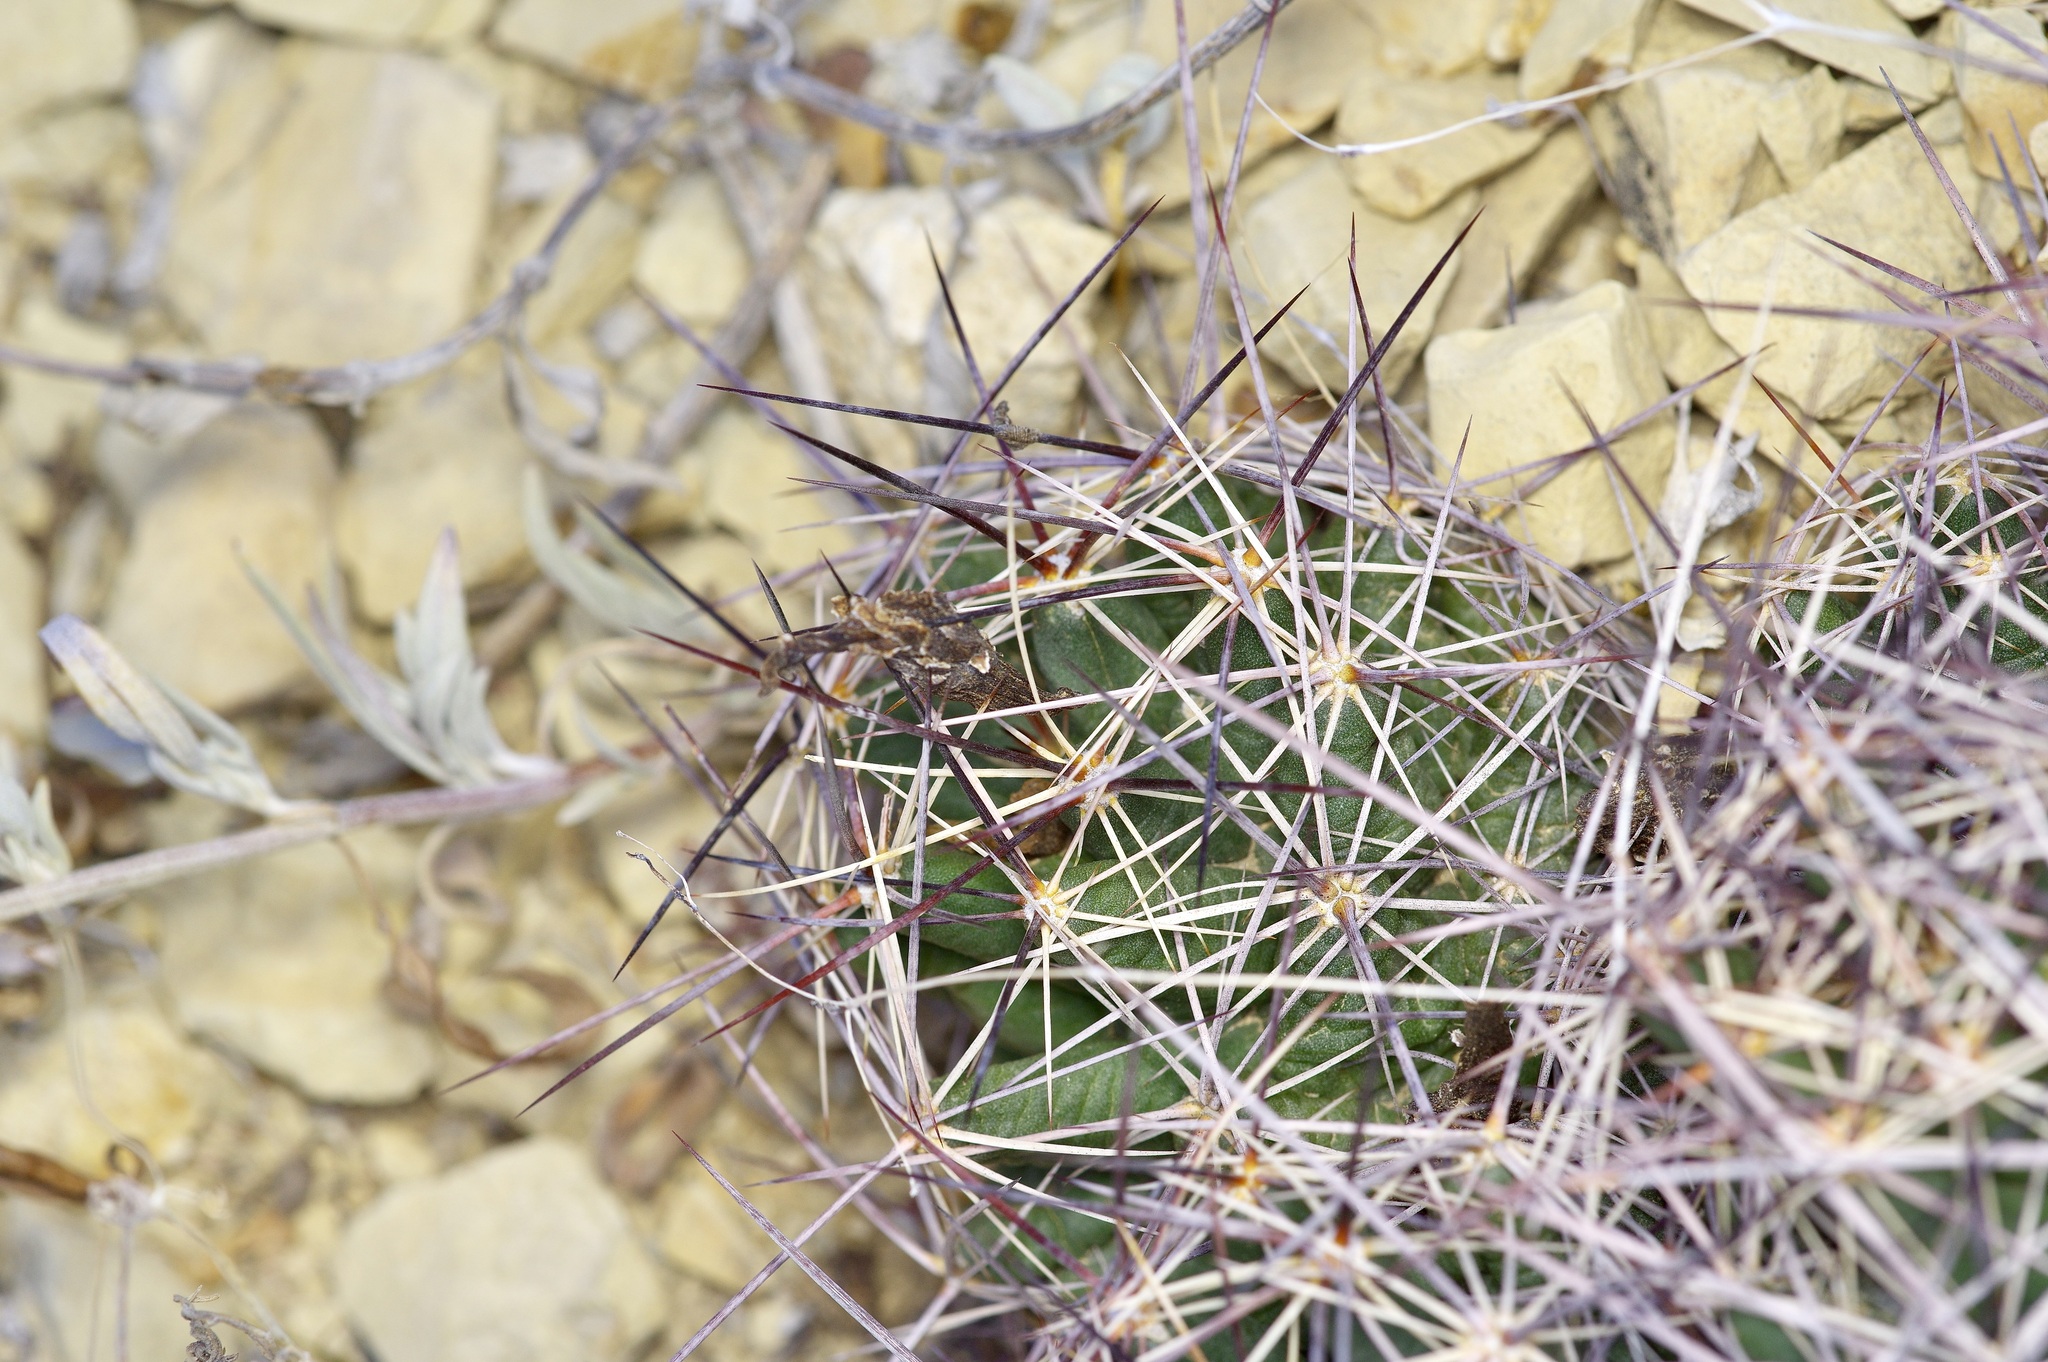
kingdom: Plantae
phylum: Tracheophyta
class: Magnoliopsida
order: Caryophyllales
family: Cactaceae
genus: Coryphantha
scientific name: Coryphantha macromeris
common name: Nipple beehive cactus
